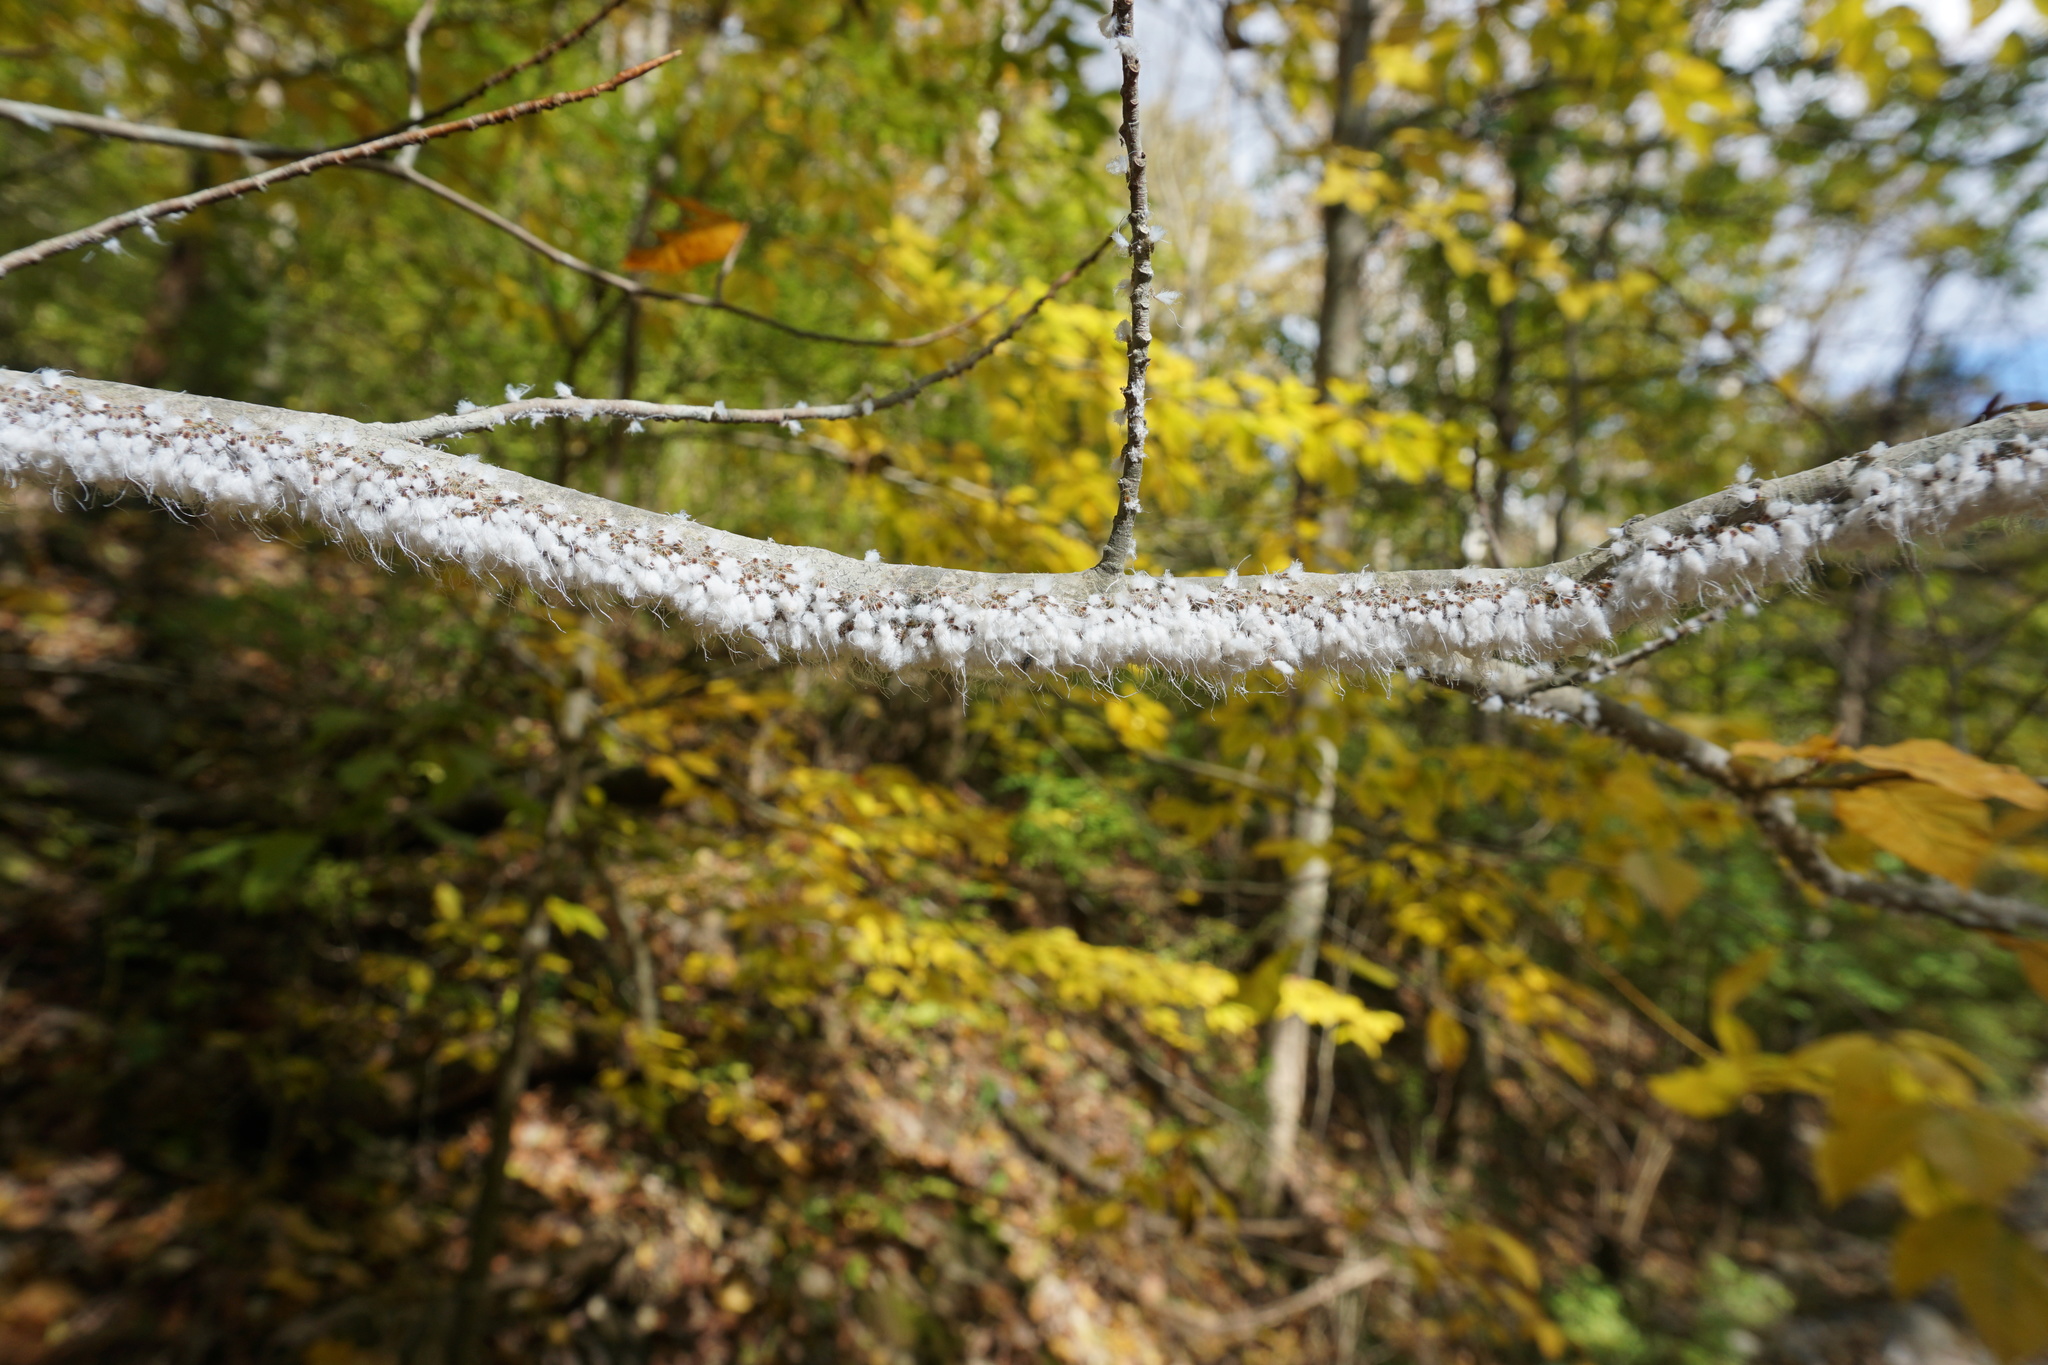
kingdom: Animalia
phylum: Arthropoda
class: Insecta
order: Hemiptera
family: Aphididae
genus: Grylloprociphilus
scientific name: Grylloprociphilus imbricator
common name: Beech blight aphid
